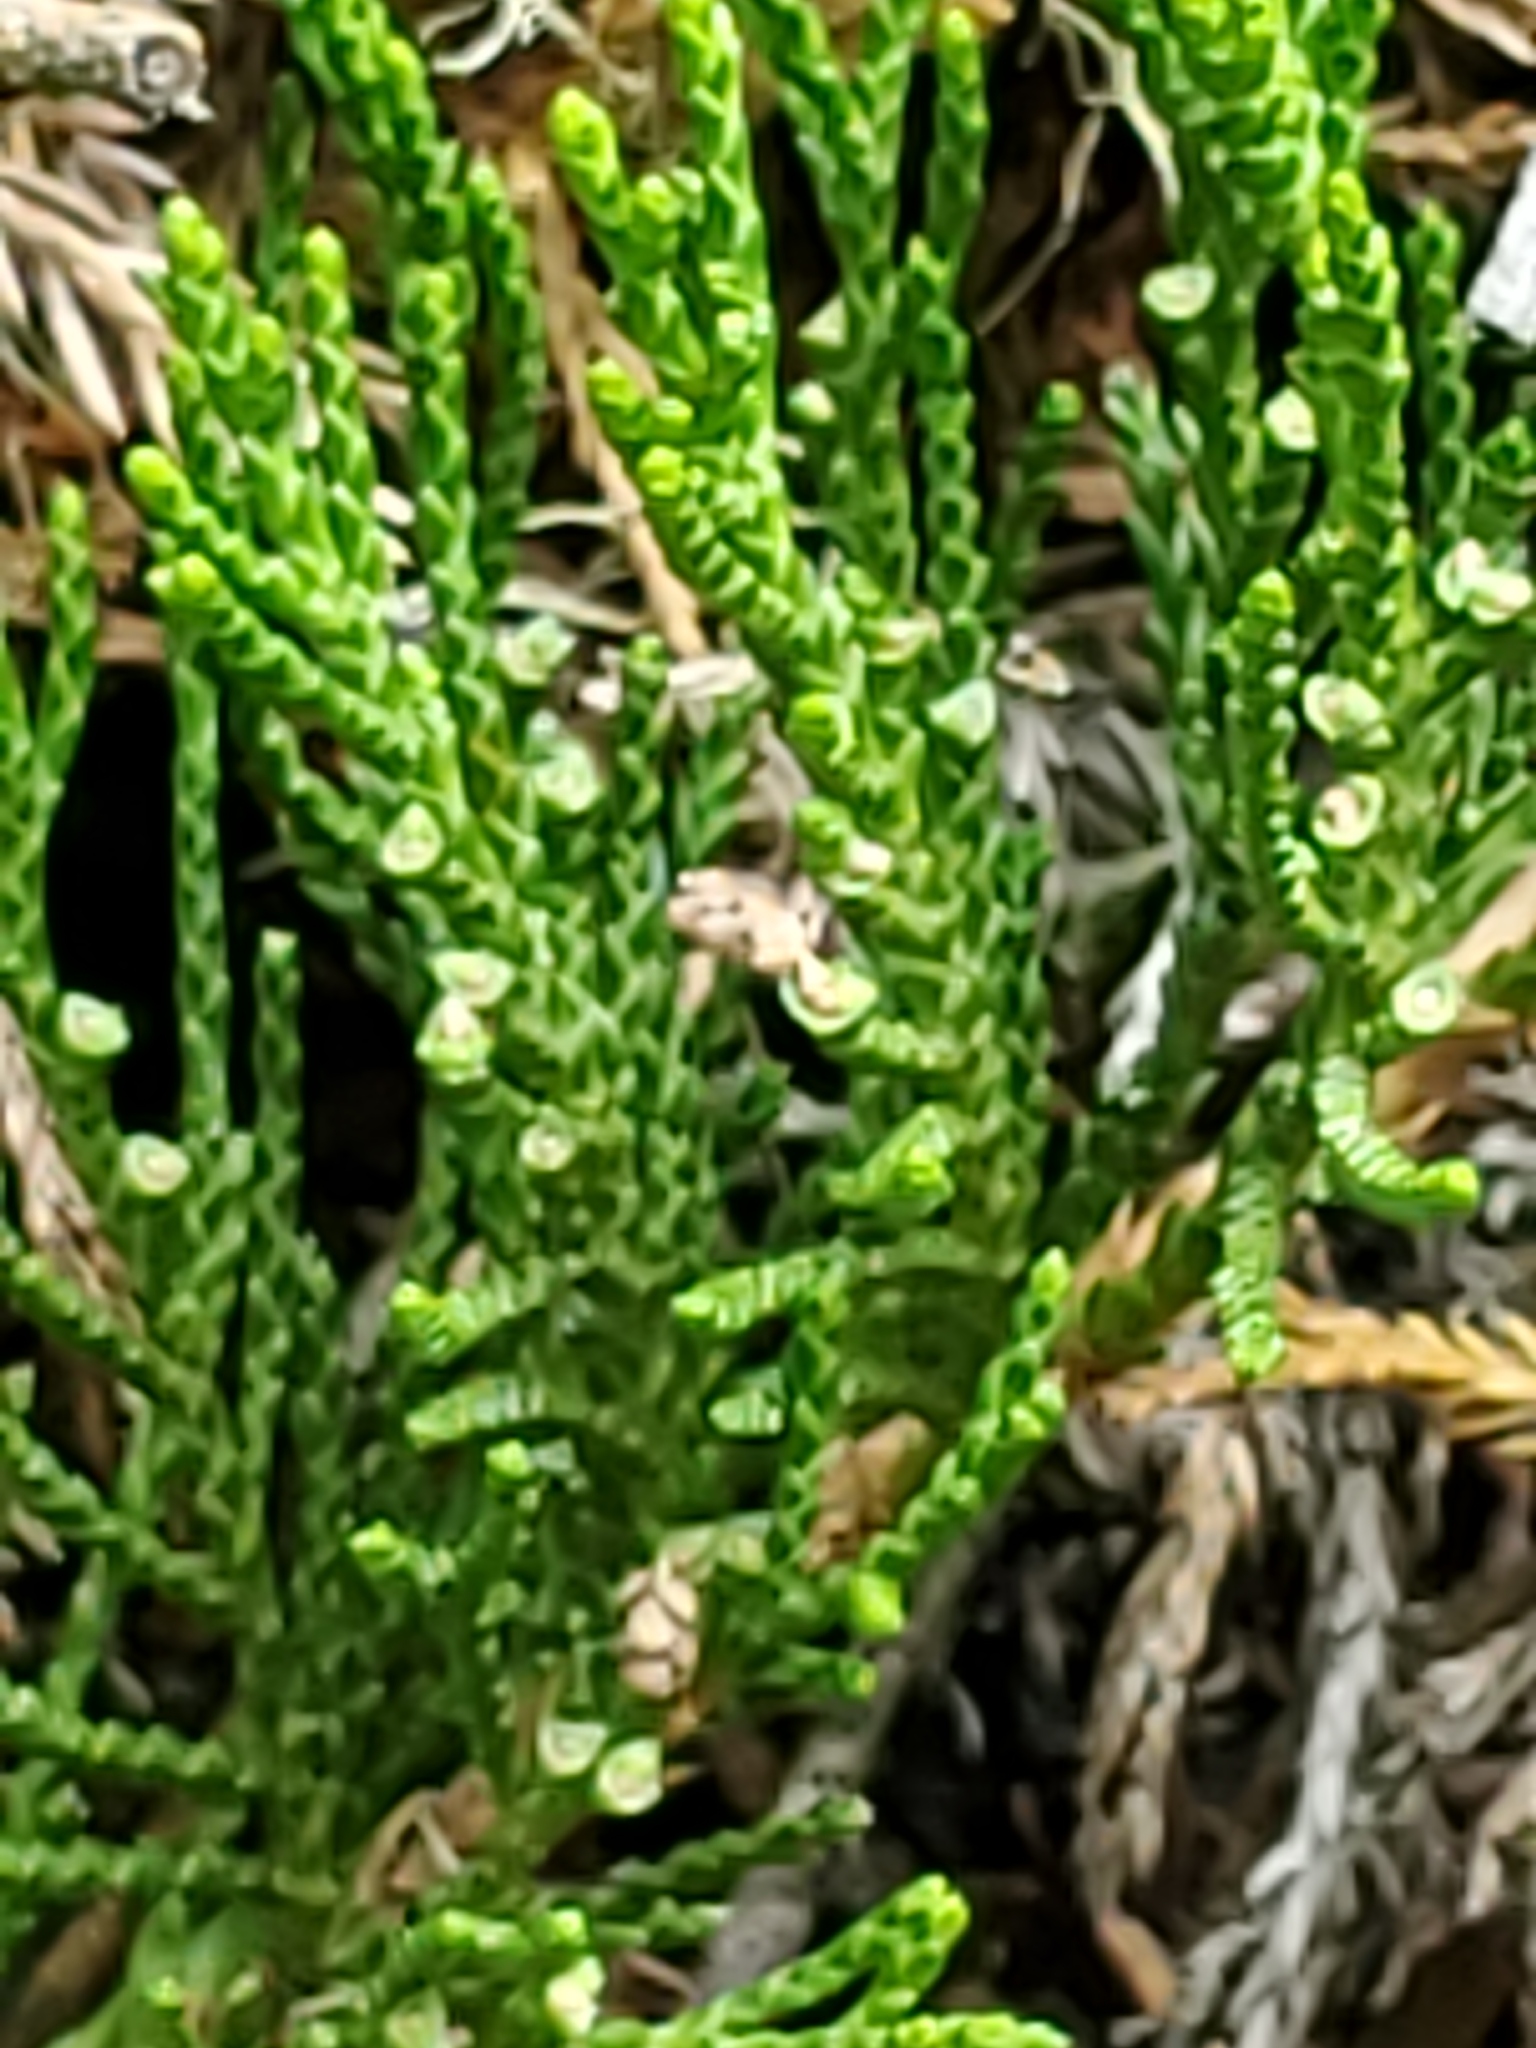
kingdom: Plantae
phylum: Tracheophyta
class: Pinopsida
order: Pinales
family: Cupressaceae
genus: Juniperus
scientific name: Juniperus horizontalis
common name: Creeping juniper
